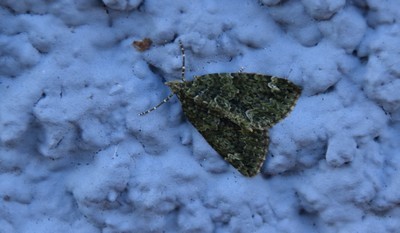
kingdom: Animalia
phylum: Arthropoda
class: Insecta
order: Lepidoptera
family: Geometridae
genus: Chloroclysta
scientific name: Chloroclysta siterata
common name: Red-green carpet
